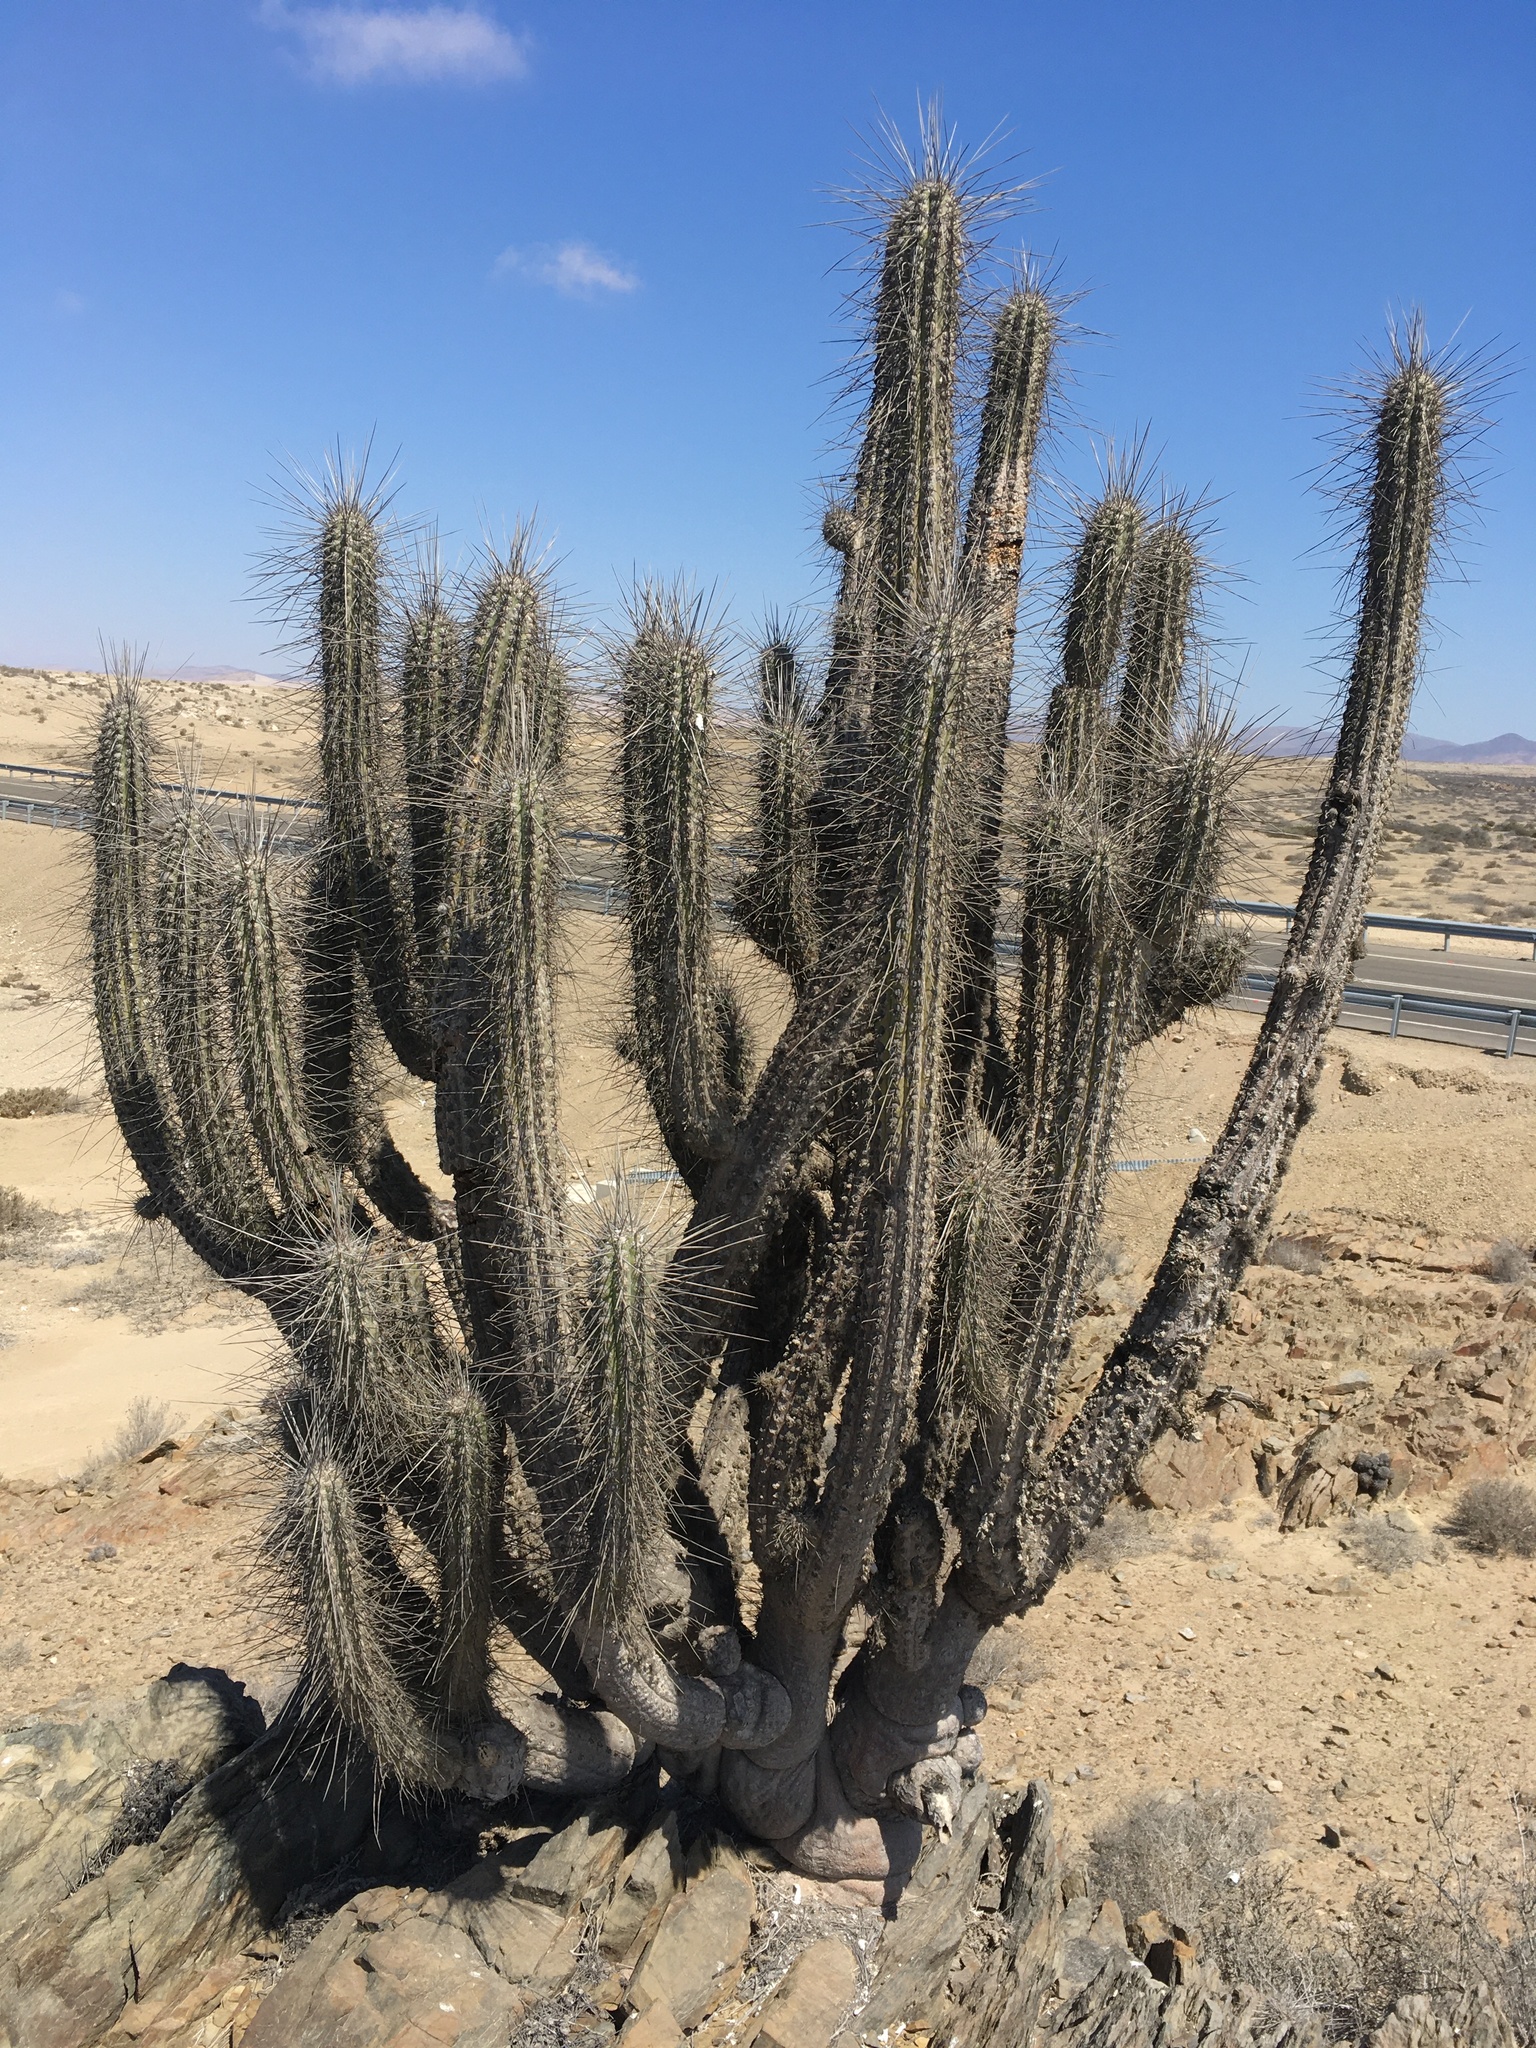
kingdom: Plantae
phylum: Tracheophyta
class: Magnoliopsida
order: Caryophyllales
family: Cactaceae
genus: Eulychnia
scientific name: Eulychnia breviflora
